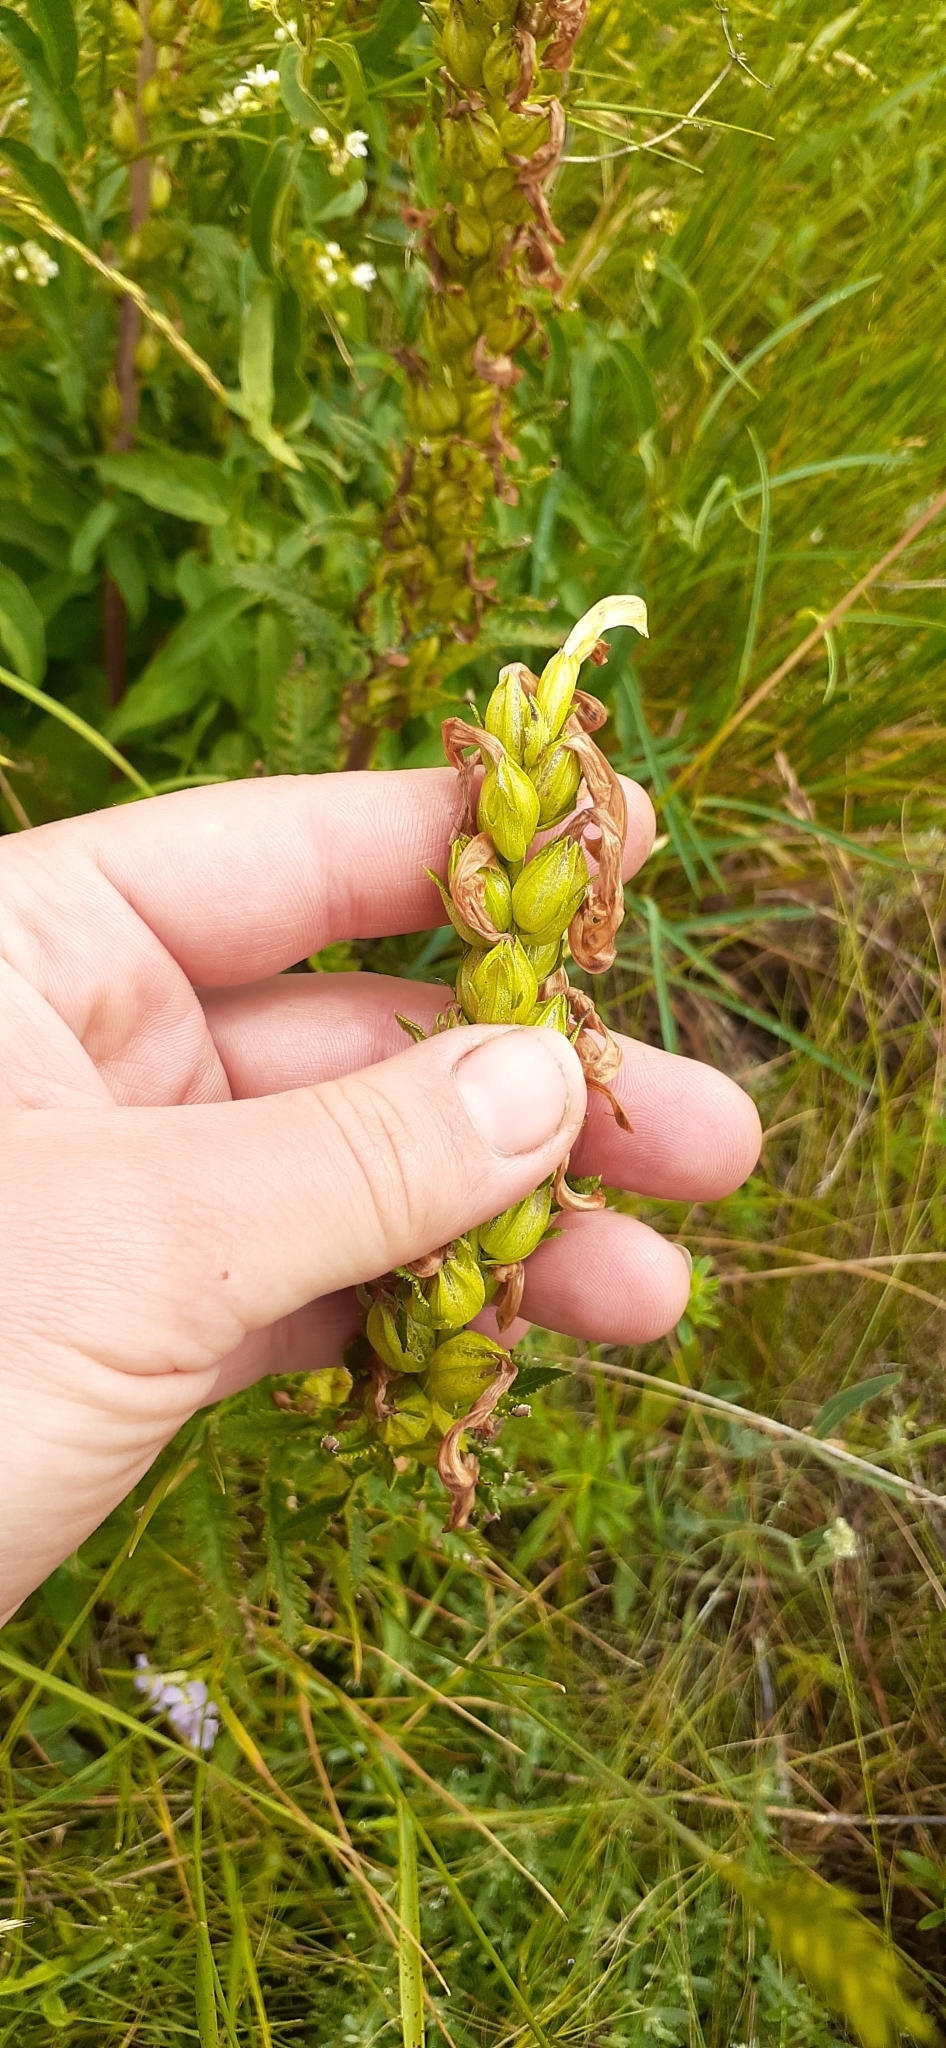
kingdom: Plantae
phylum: Tracheophyta
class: Magnoliopsida
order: Lamiales
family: Orobanchaceae
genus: Pedicularis
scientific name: Pedicularis kaufmannii
